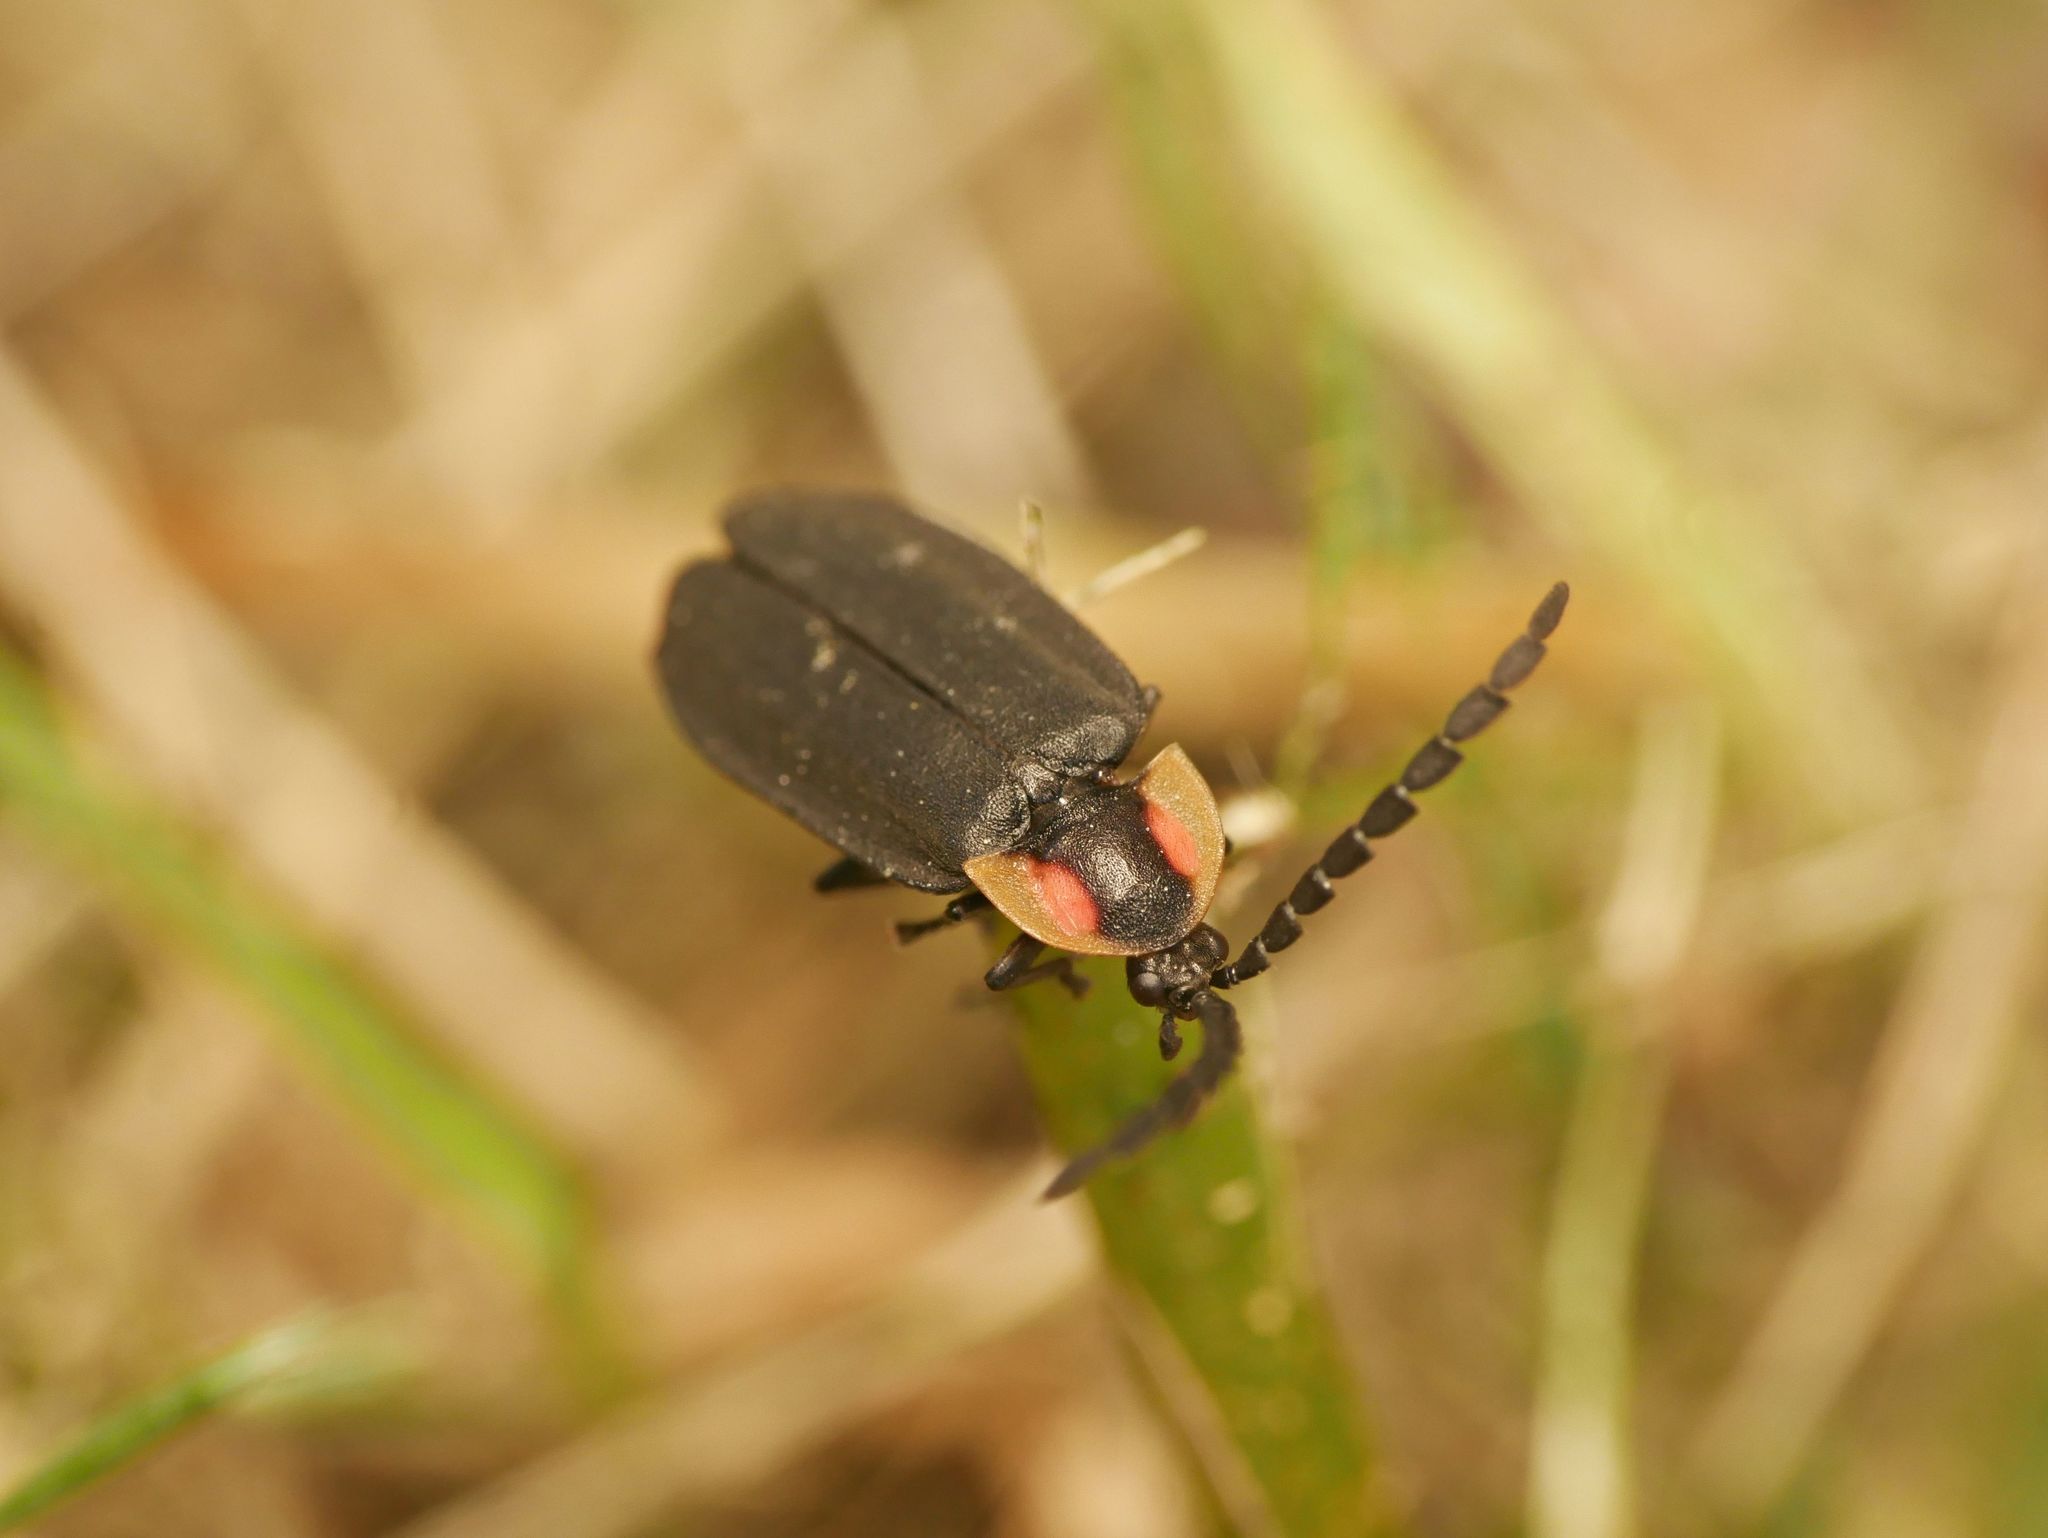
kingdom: Animalia
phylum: Arthropoda
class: Insecta
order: Coleoptera
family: Lampyridae
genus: Lucidota
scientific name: Lucidota atra
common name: Black firefly
